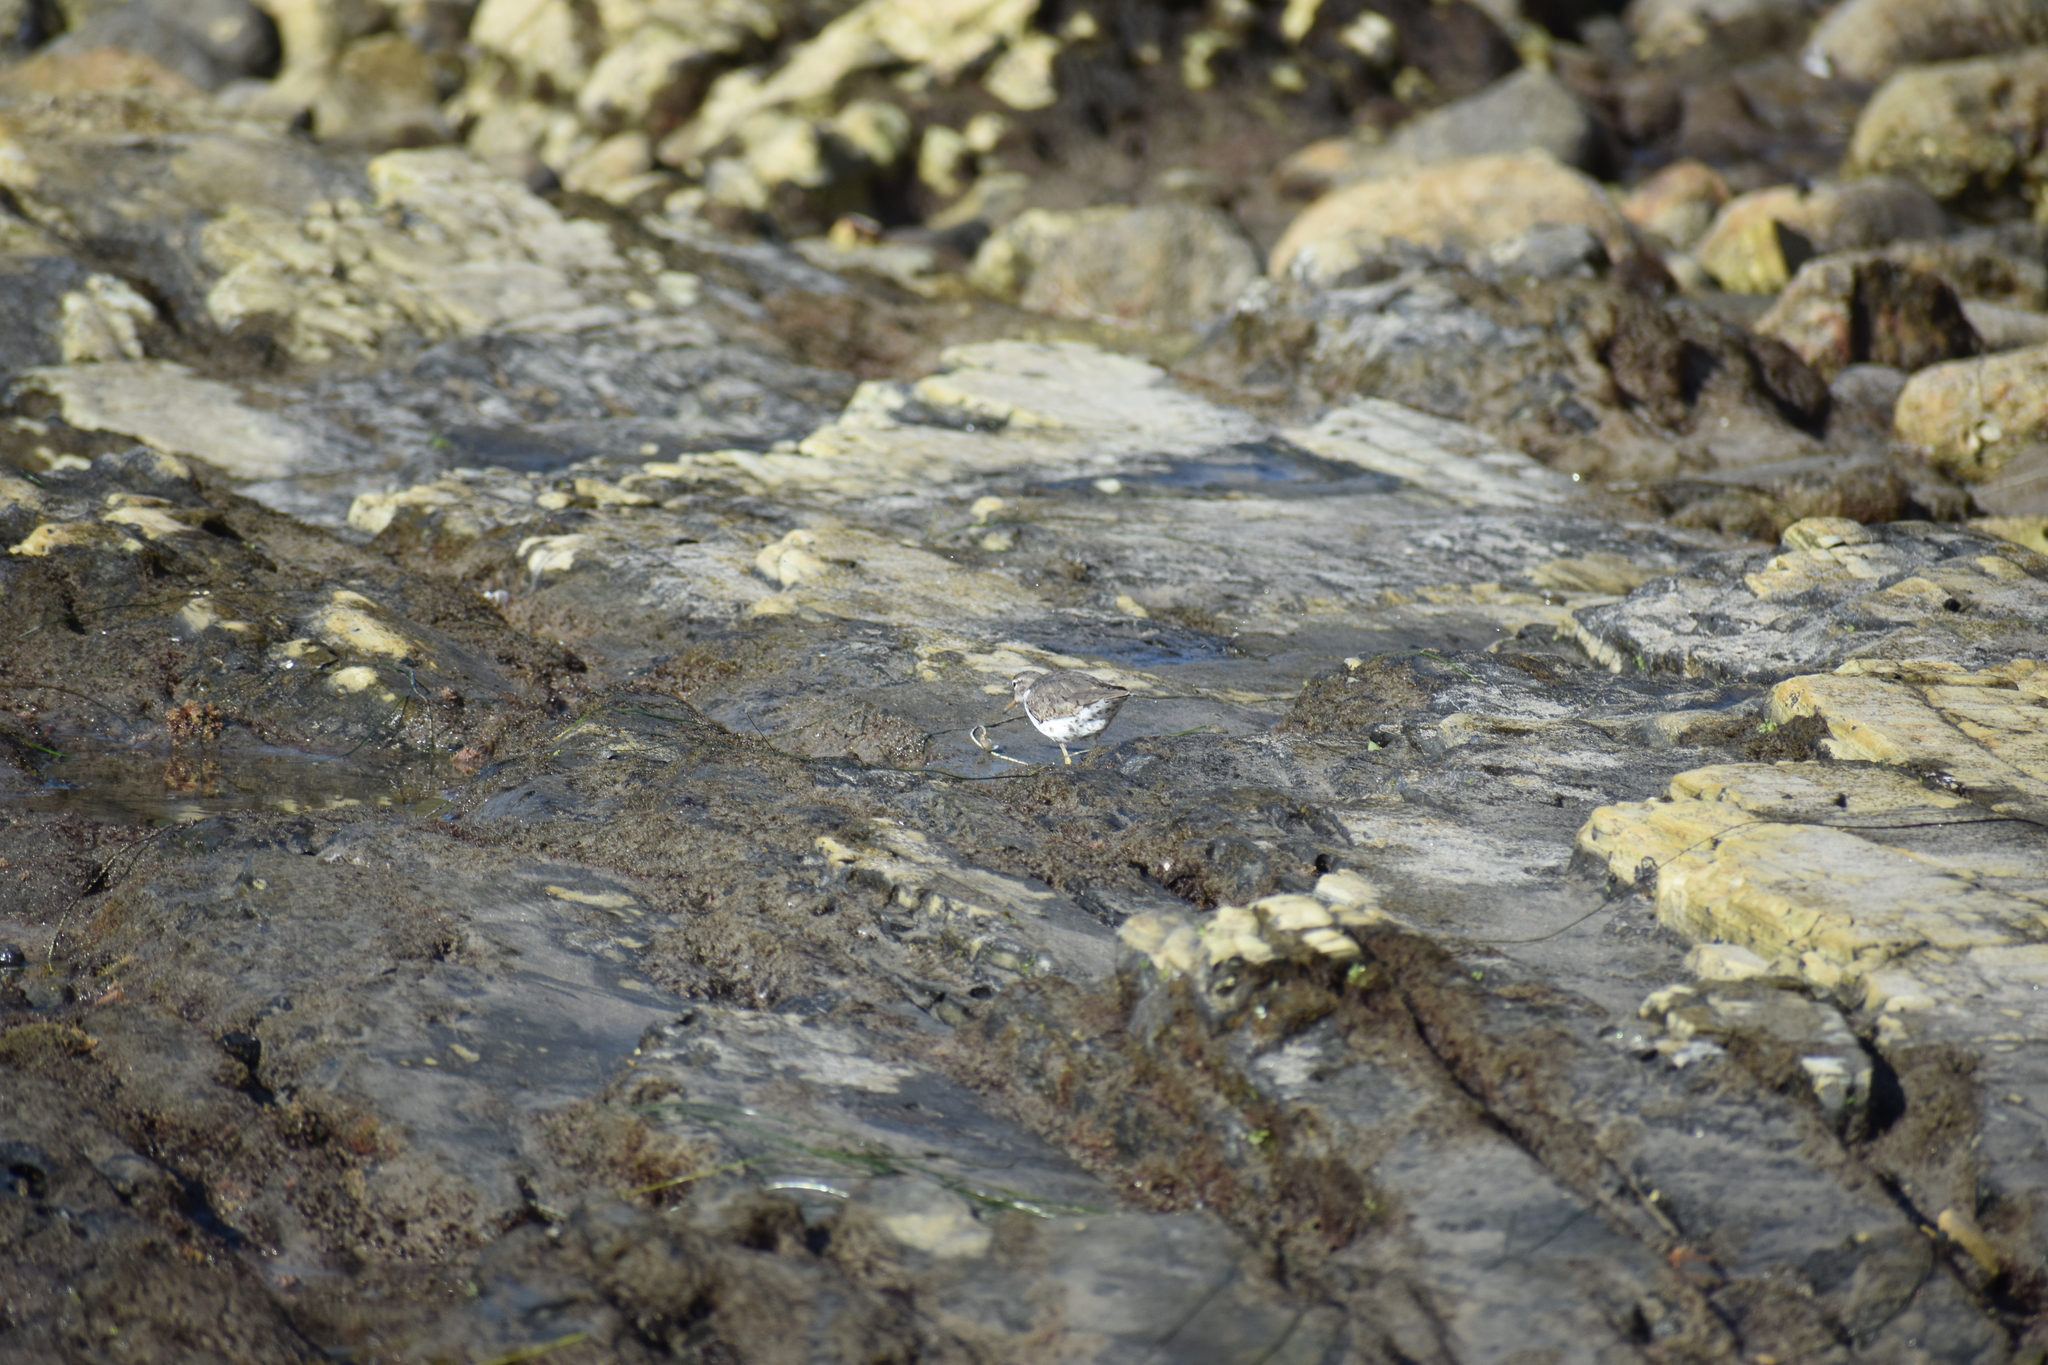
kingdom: Animalia
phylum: Chordata
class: Aves
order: Charadriiformes
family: Scolopacidae
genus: Actitis
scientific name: Actitis macularius
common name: Spotted sandpiper
